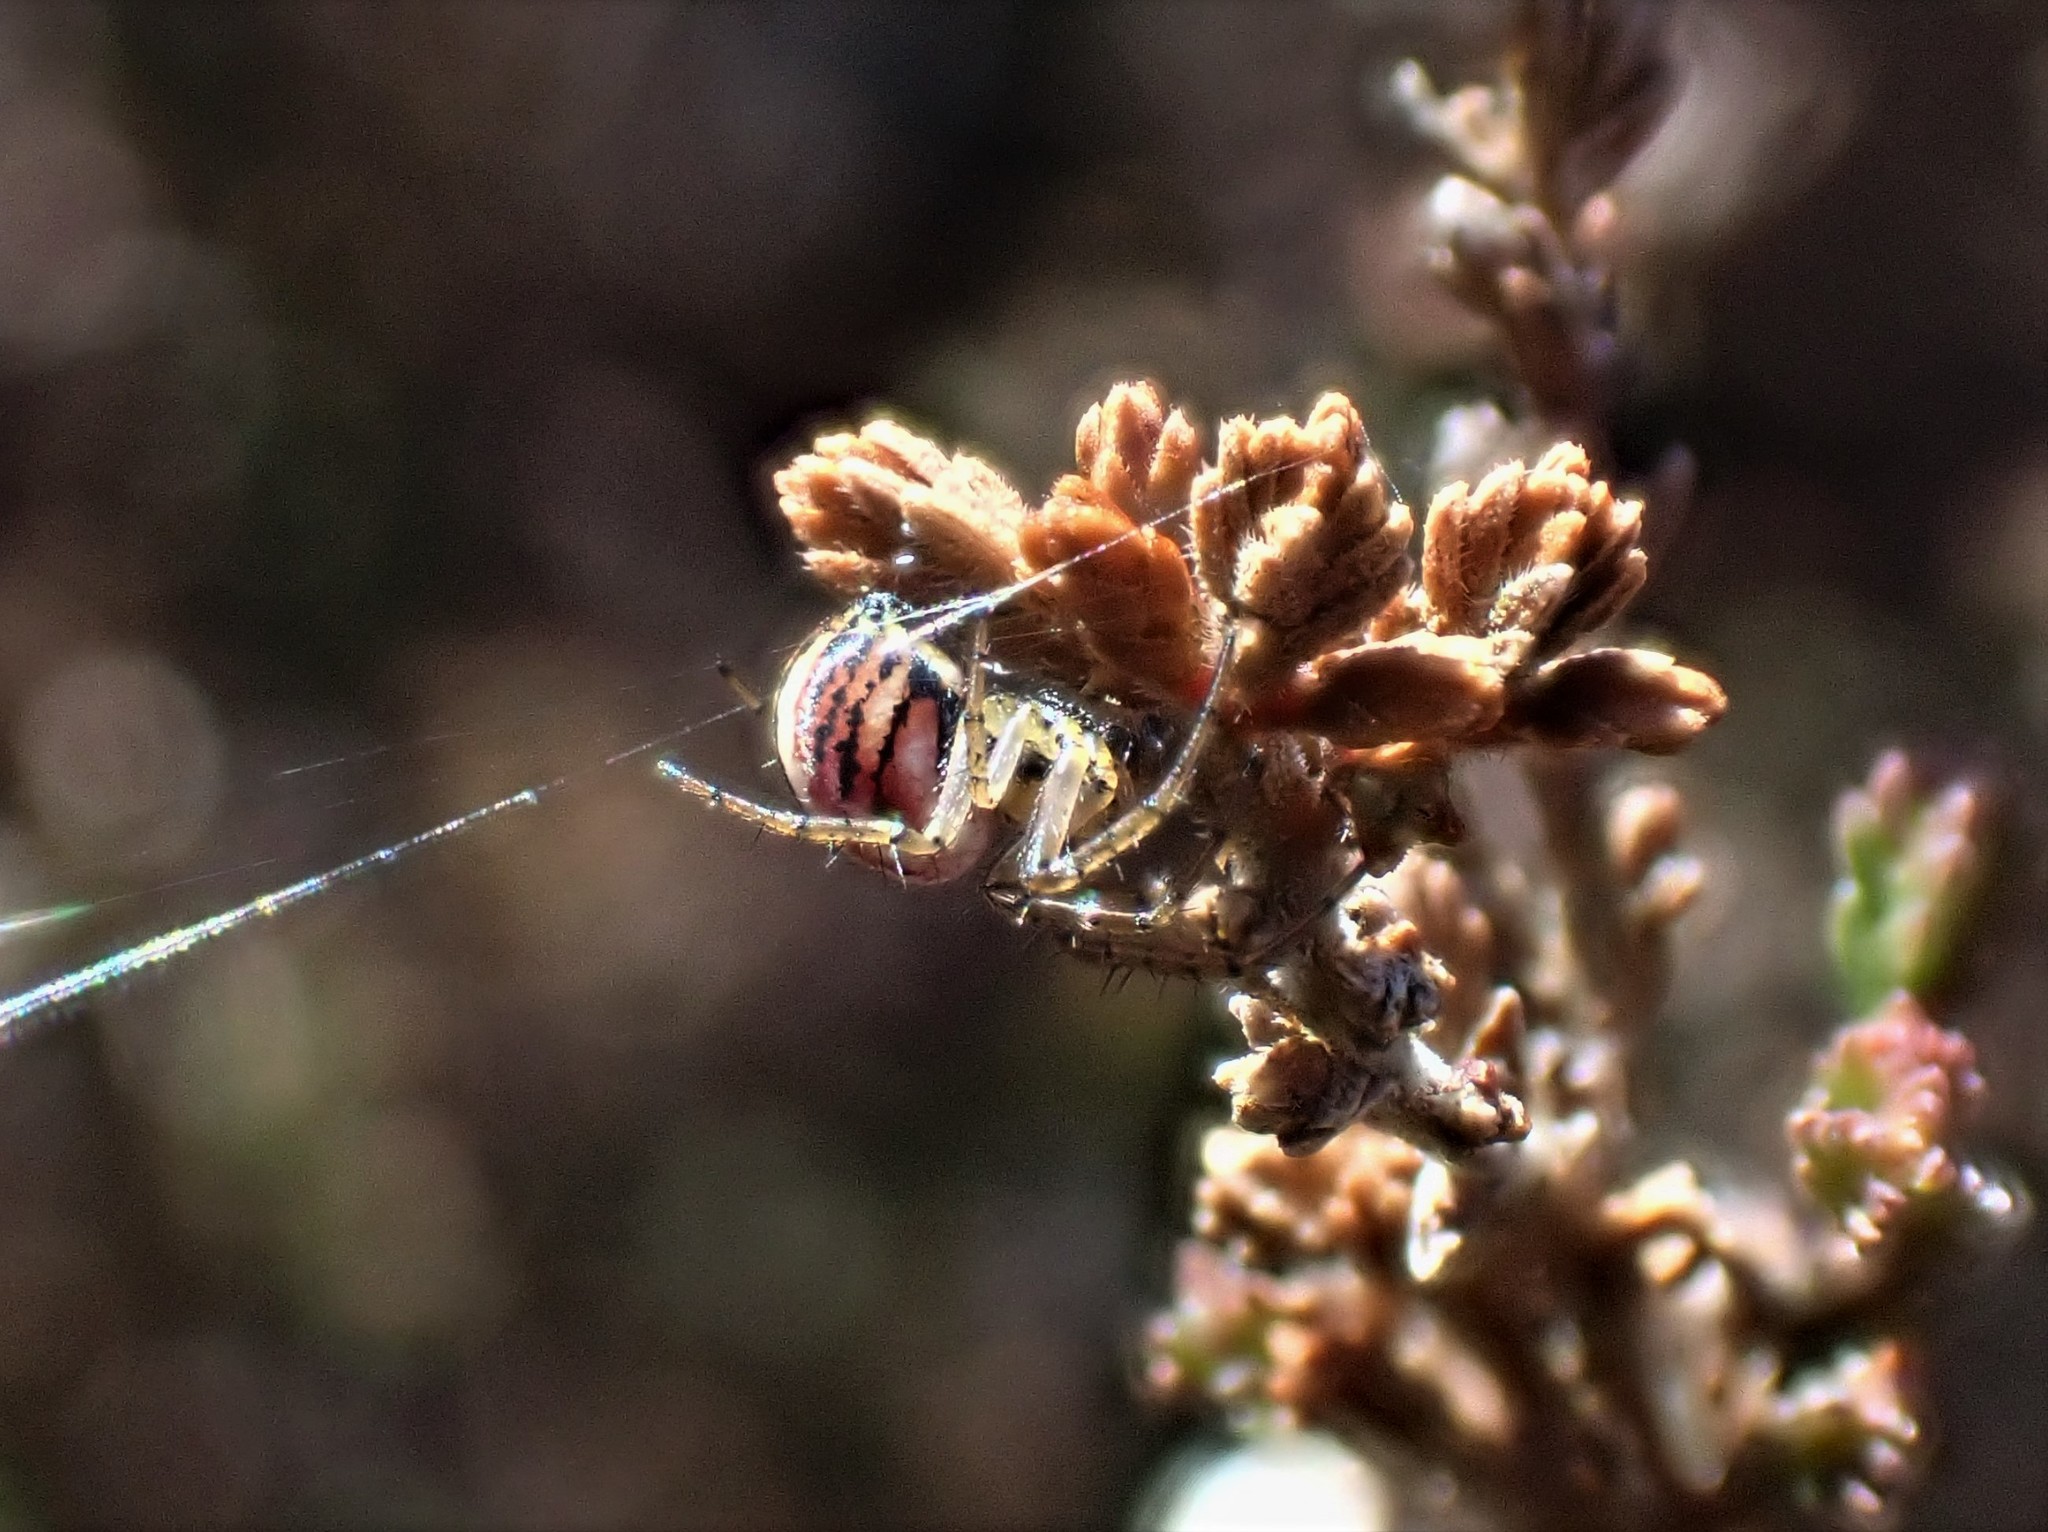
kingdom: Animalia
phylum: Arthropoda
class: Arachnida
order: Araneae
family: Araneidae
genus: Mangora
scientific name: Mangora acalypha
